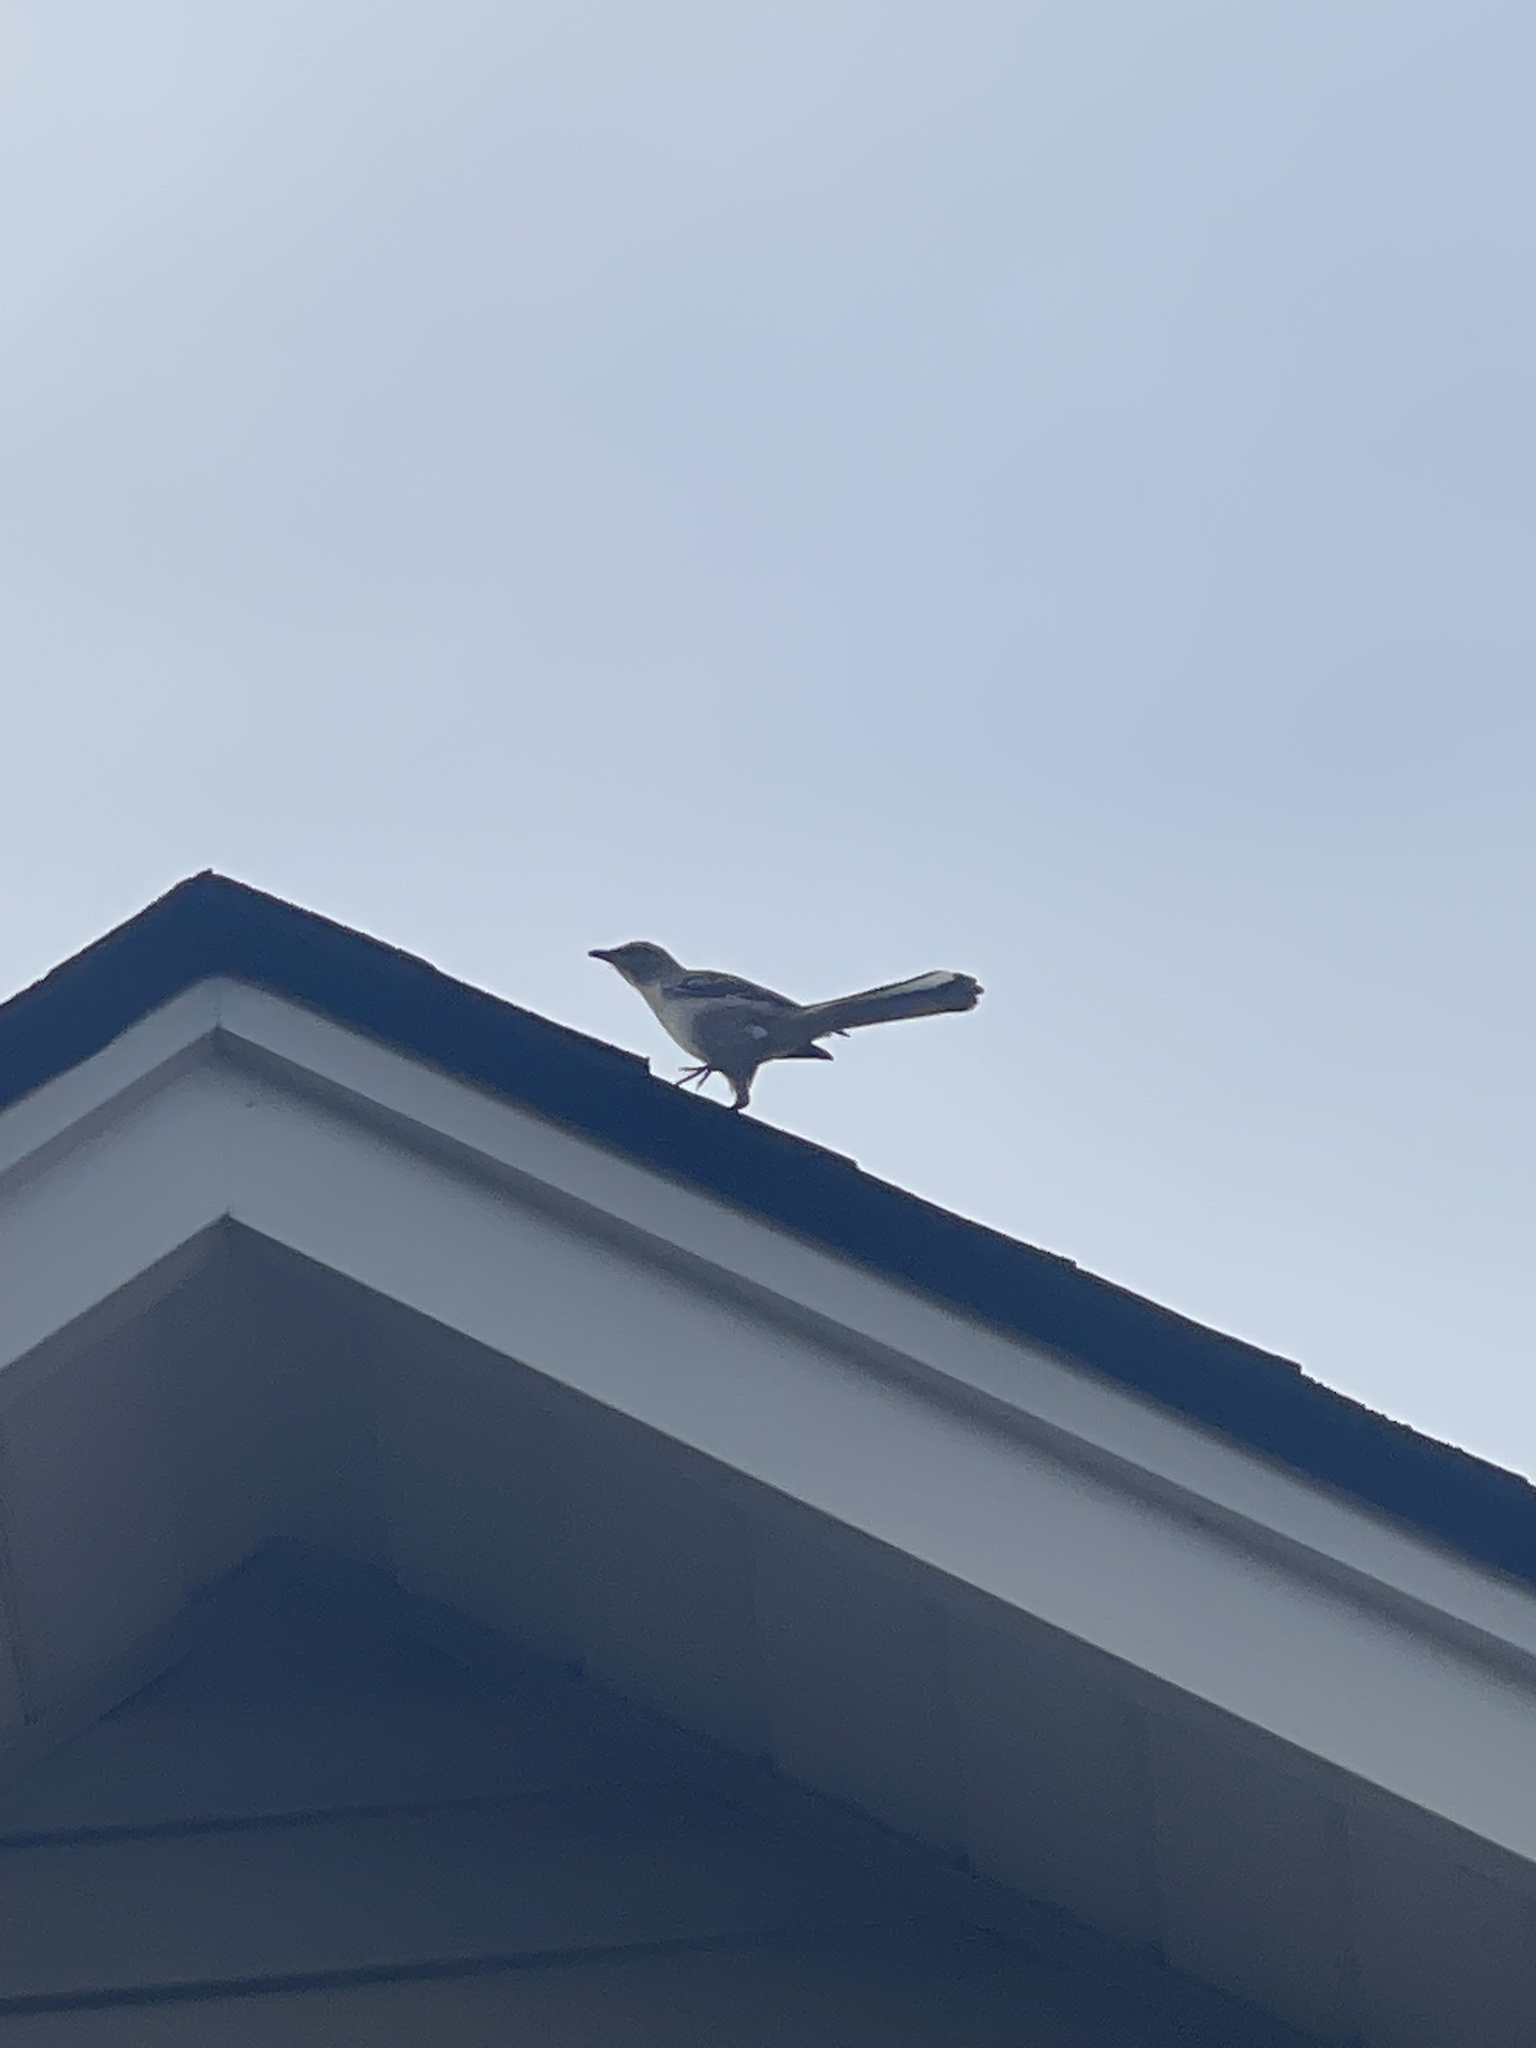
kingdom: Animalia
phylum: Chordata
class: Aves
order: Passeriformes
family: Mimidae
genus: Mimus
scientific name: Mimus polyglottos
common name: Northern mockingbird
